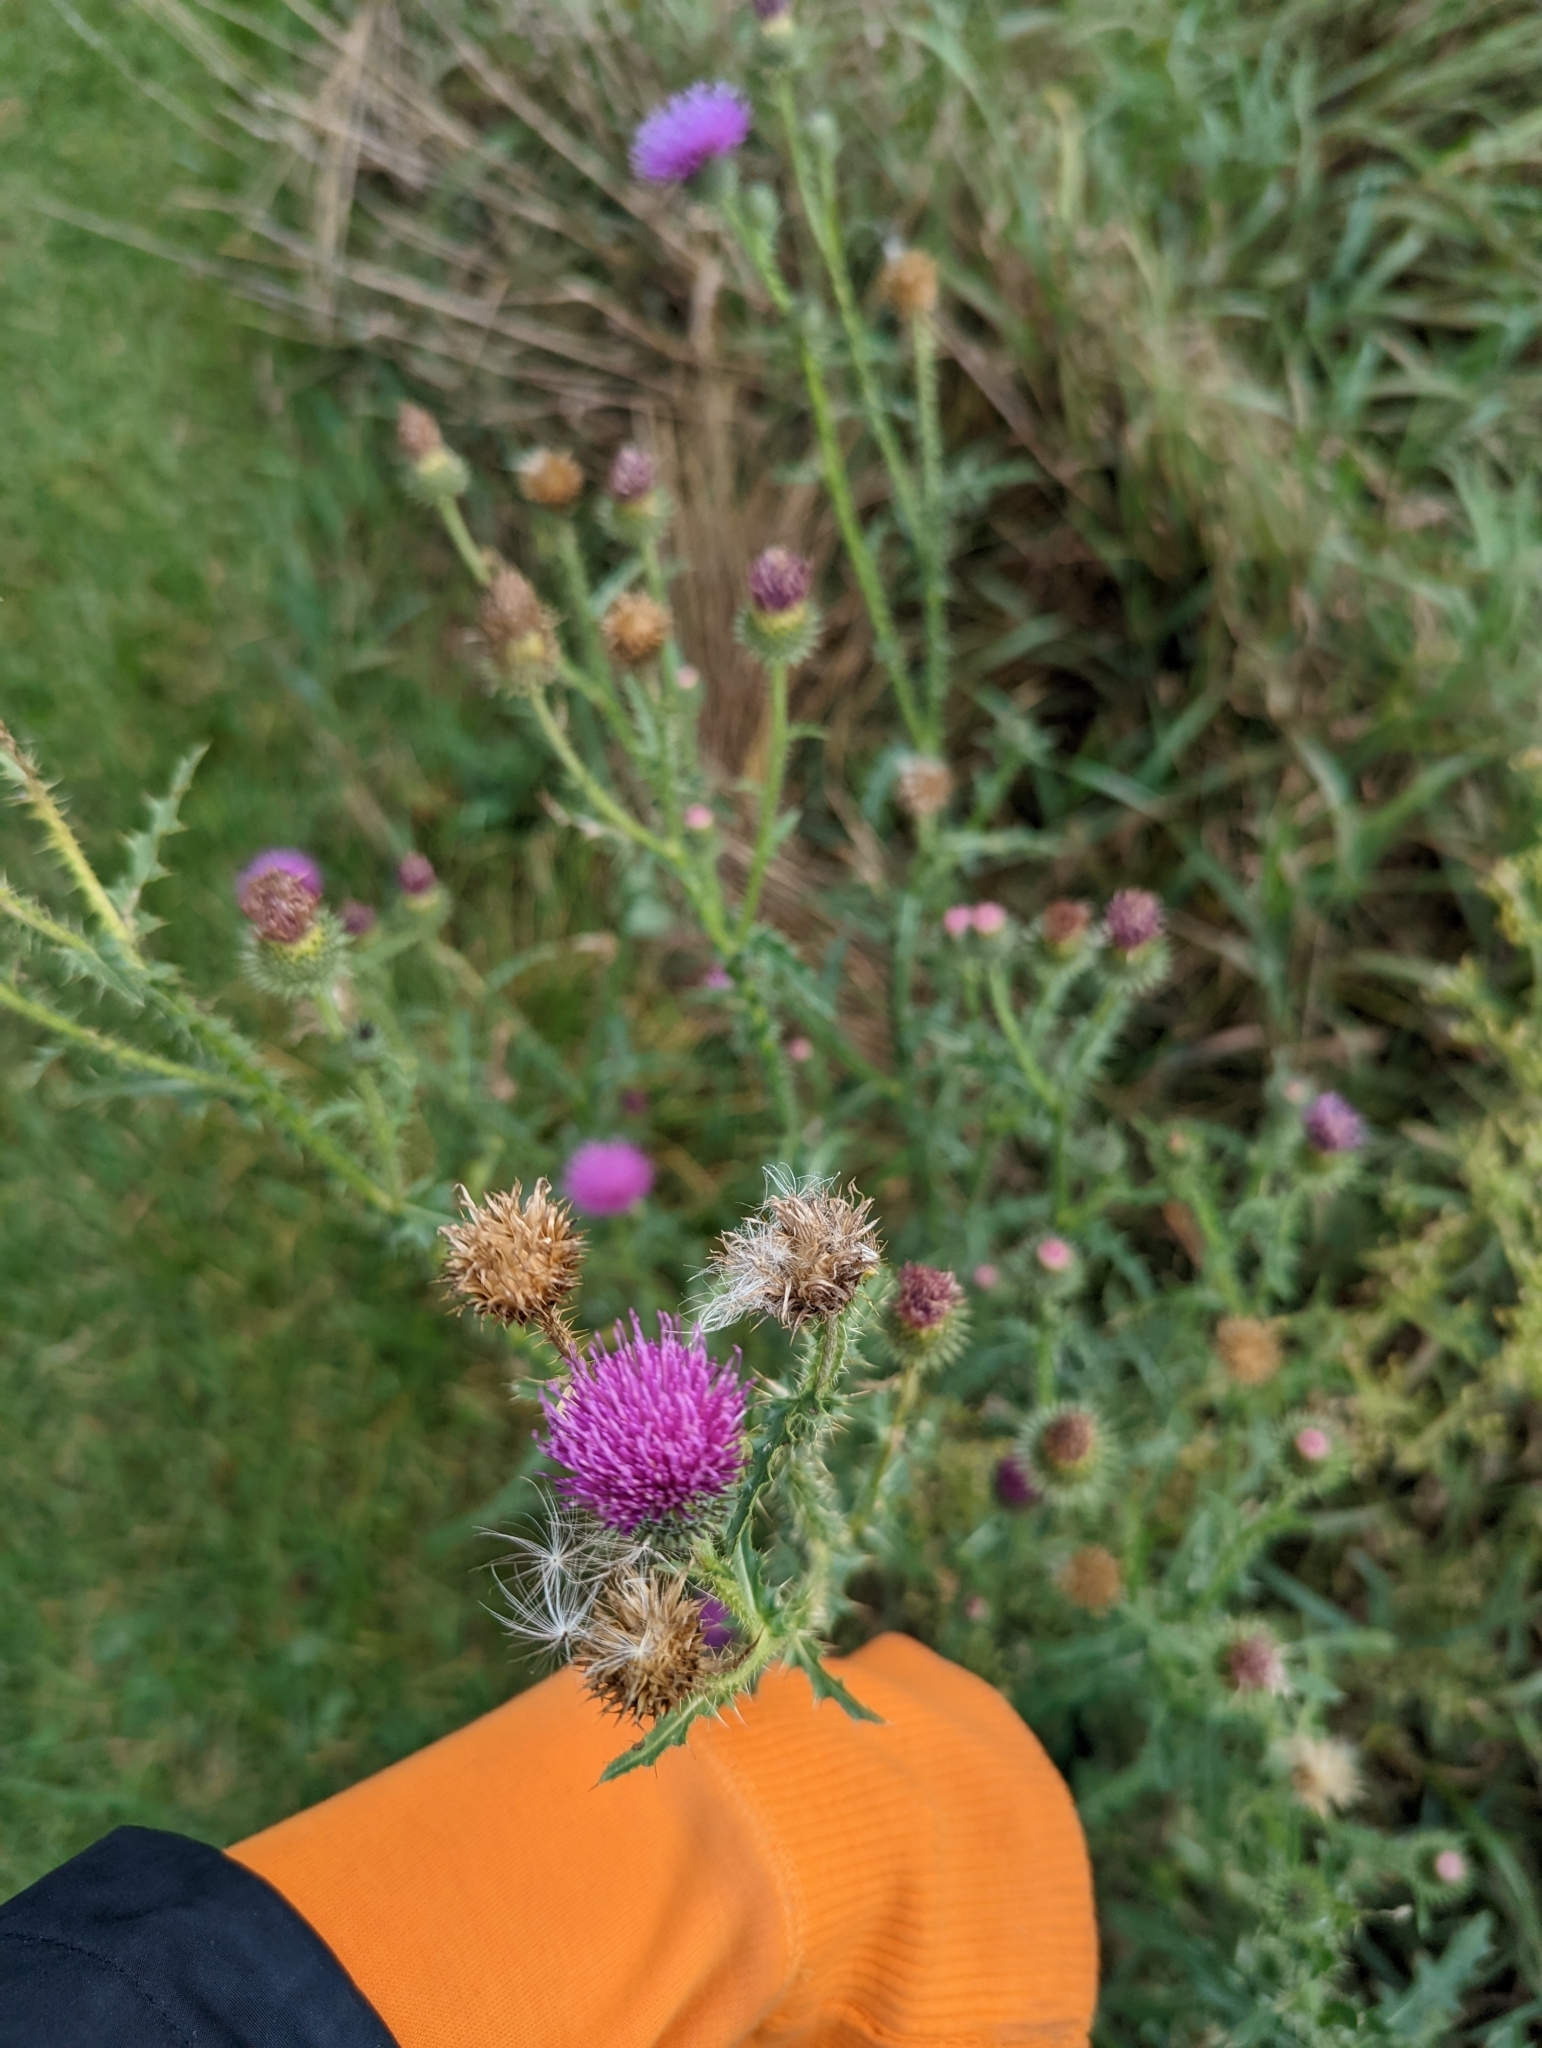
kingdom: Plantae
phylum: Tracheophyta
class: Magnoliopsida
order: Asterales
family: Asteraceae
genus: Carduus
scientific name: Carduus acanthoides
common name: Plumeless thistle
